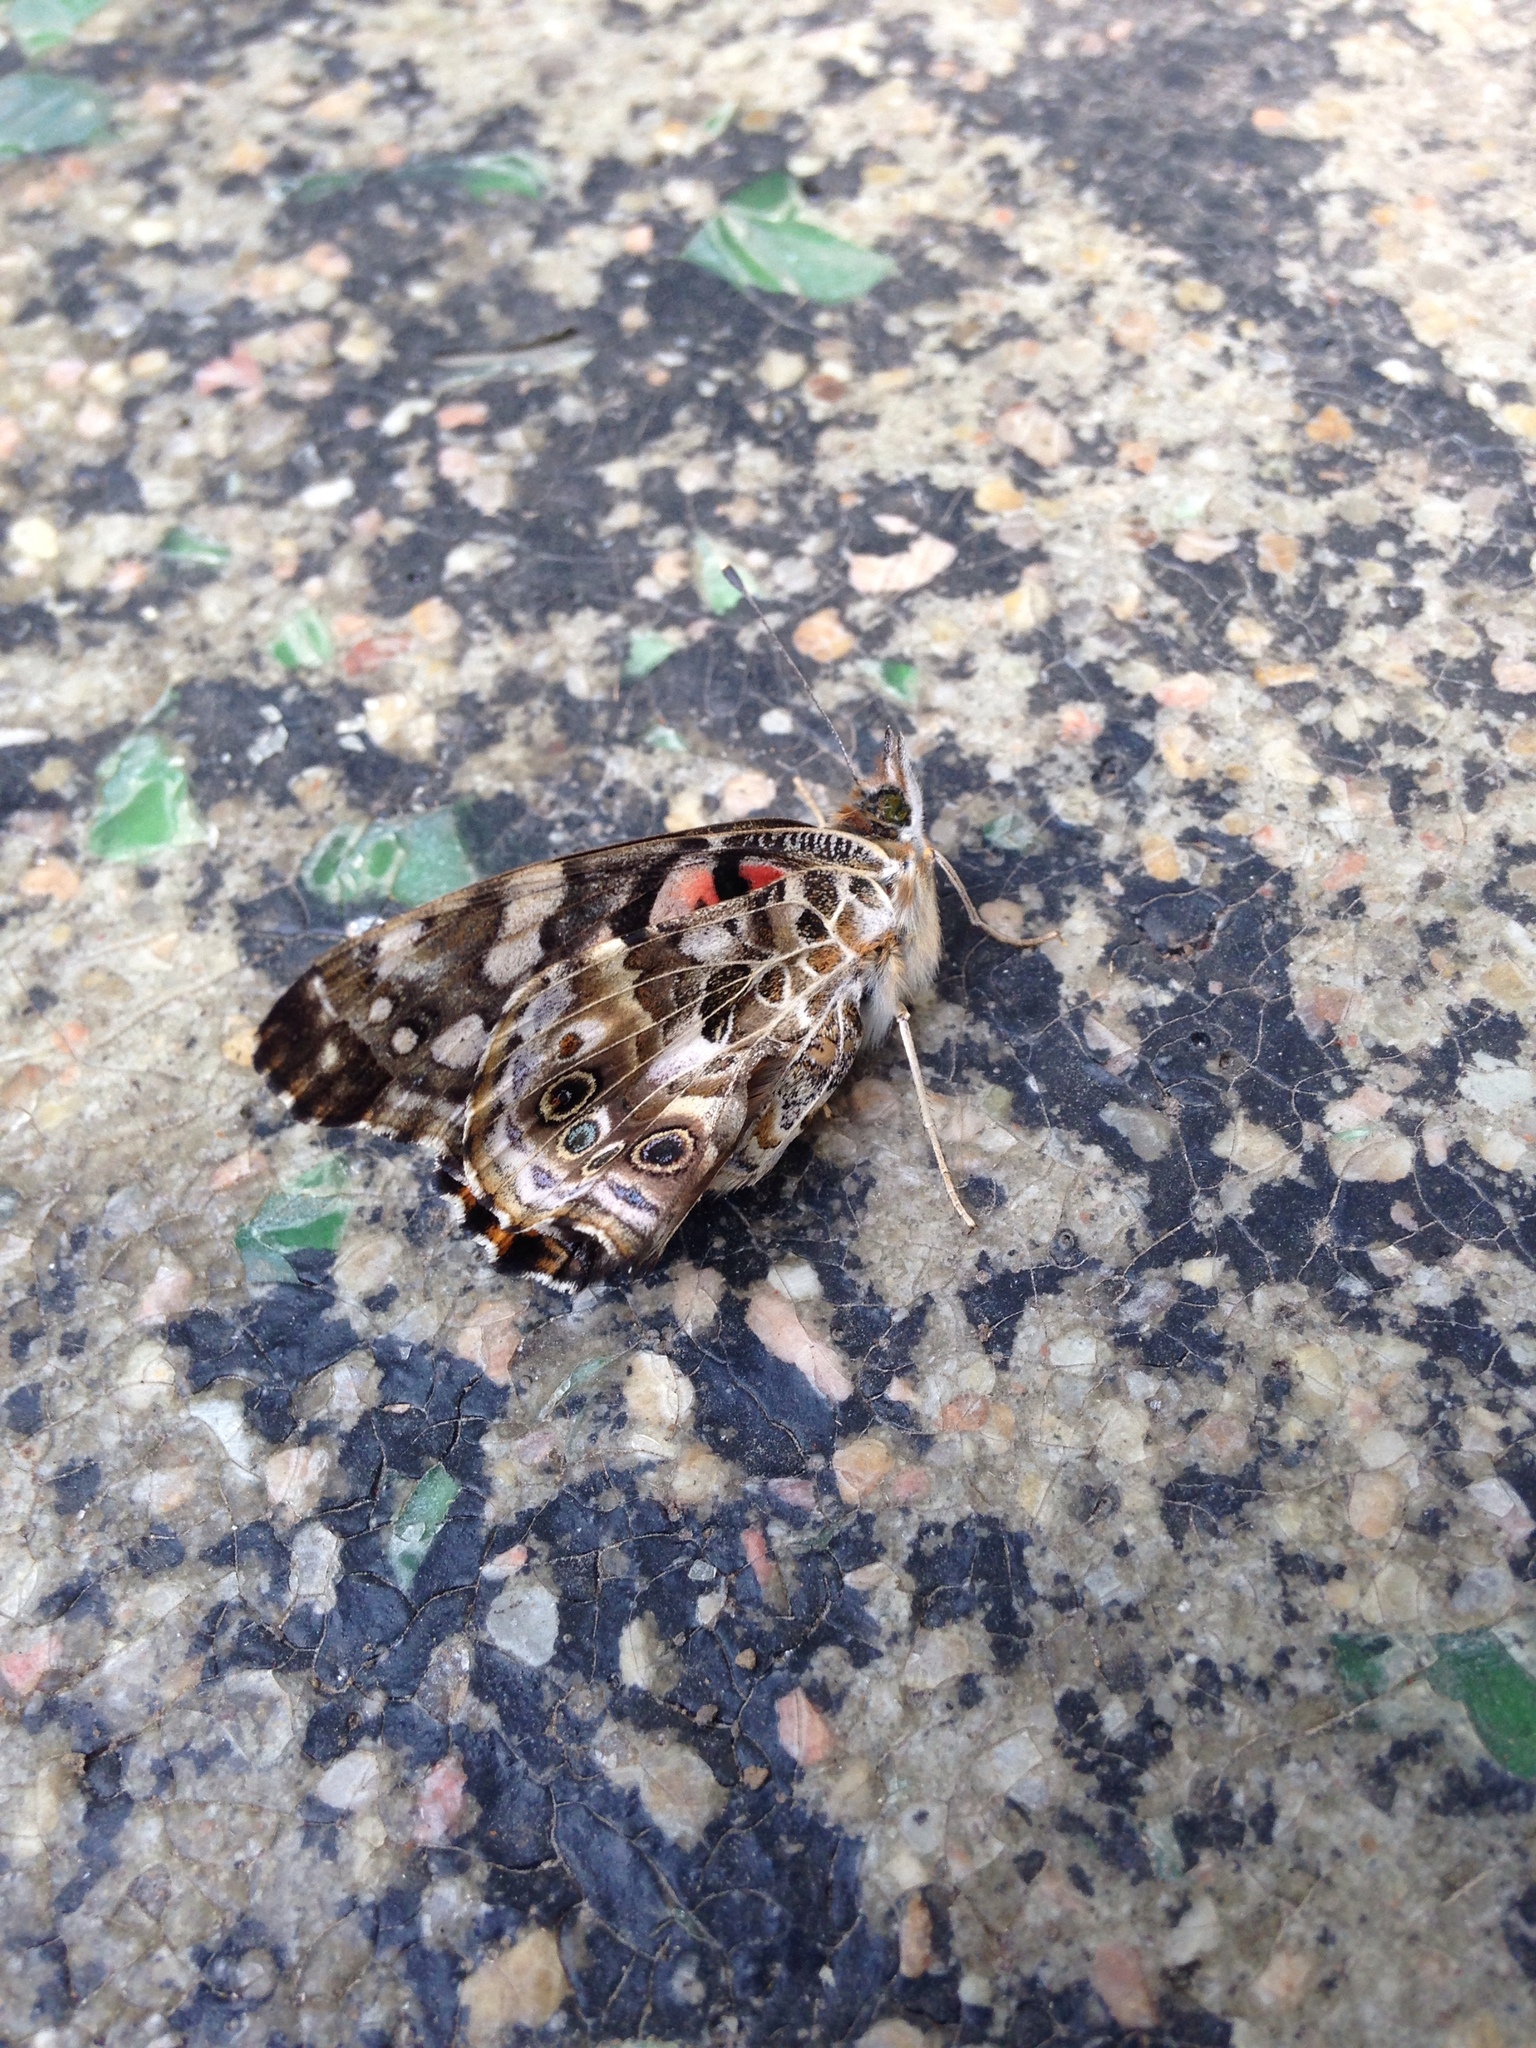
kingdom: Animalia
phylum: Arthropoda
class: Insecta
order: Lepidoptera
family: Nymphalidae
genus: Vanessa
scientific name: Vanessa cardui
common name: Painted lady
